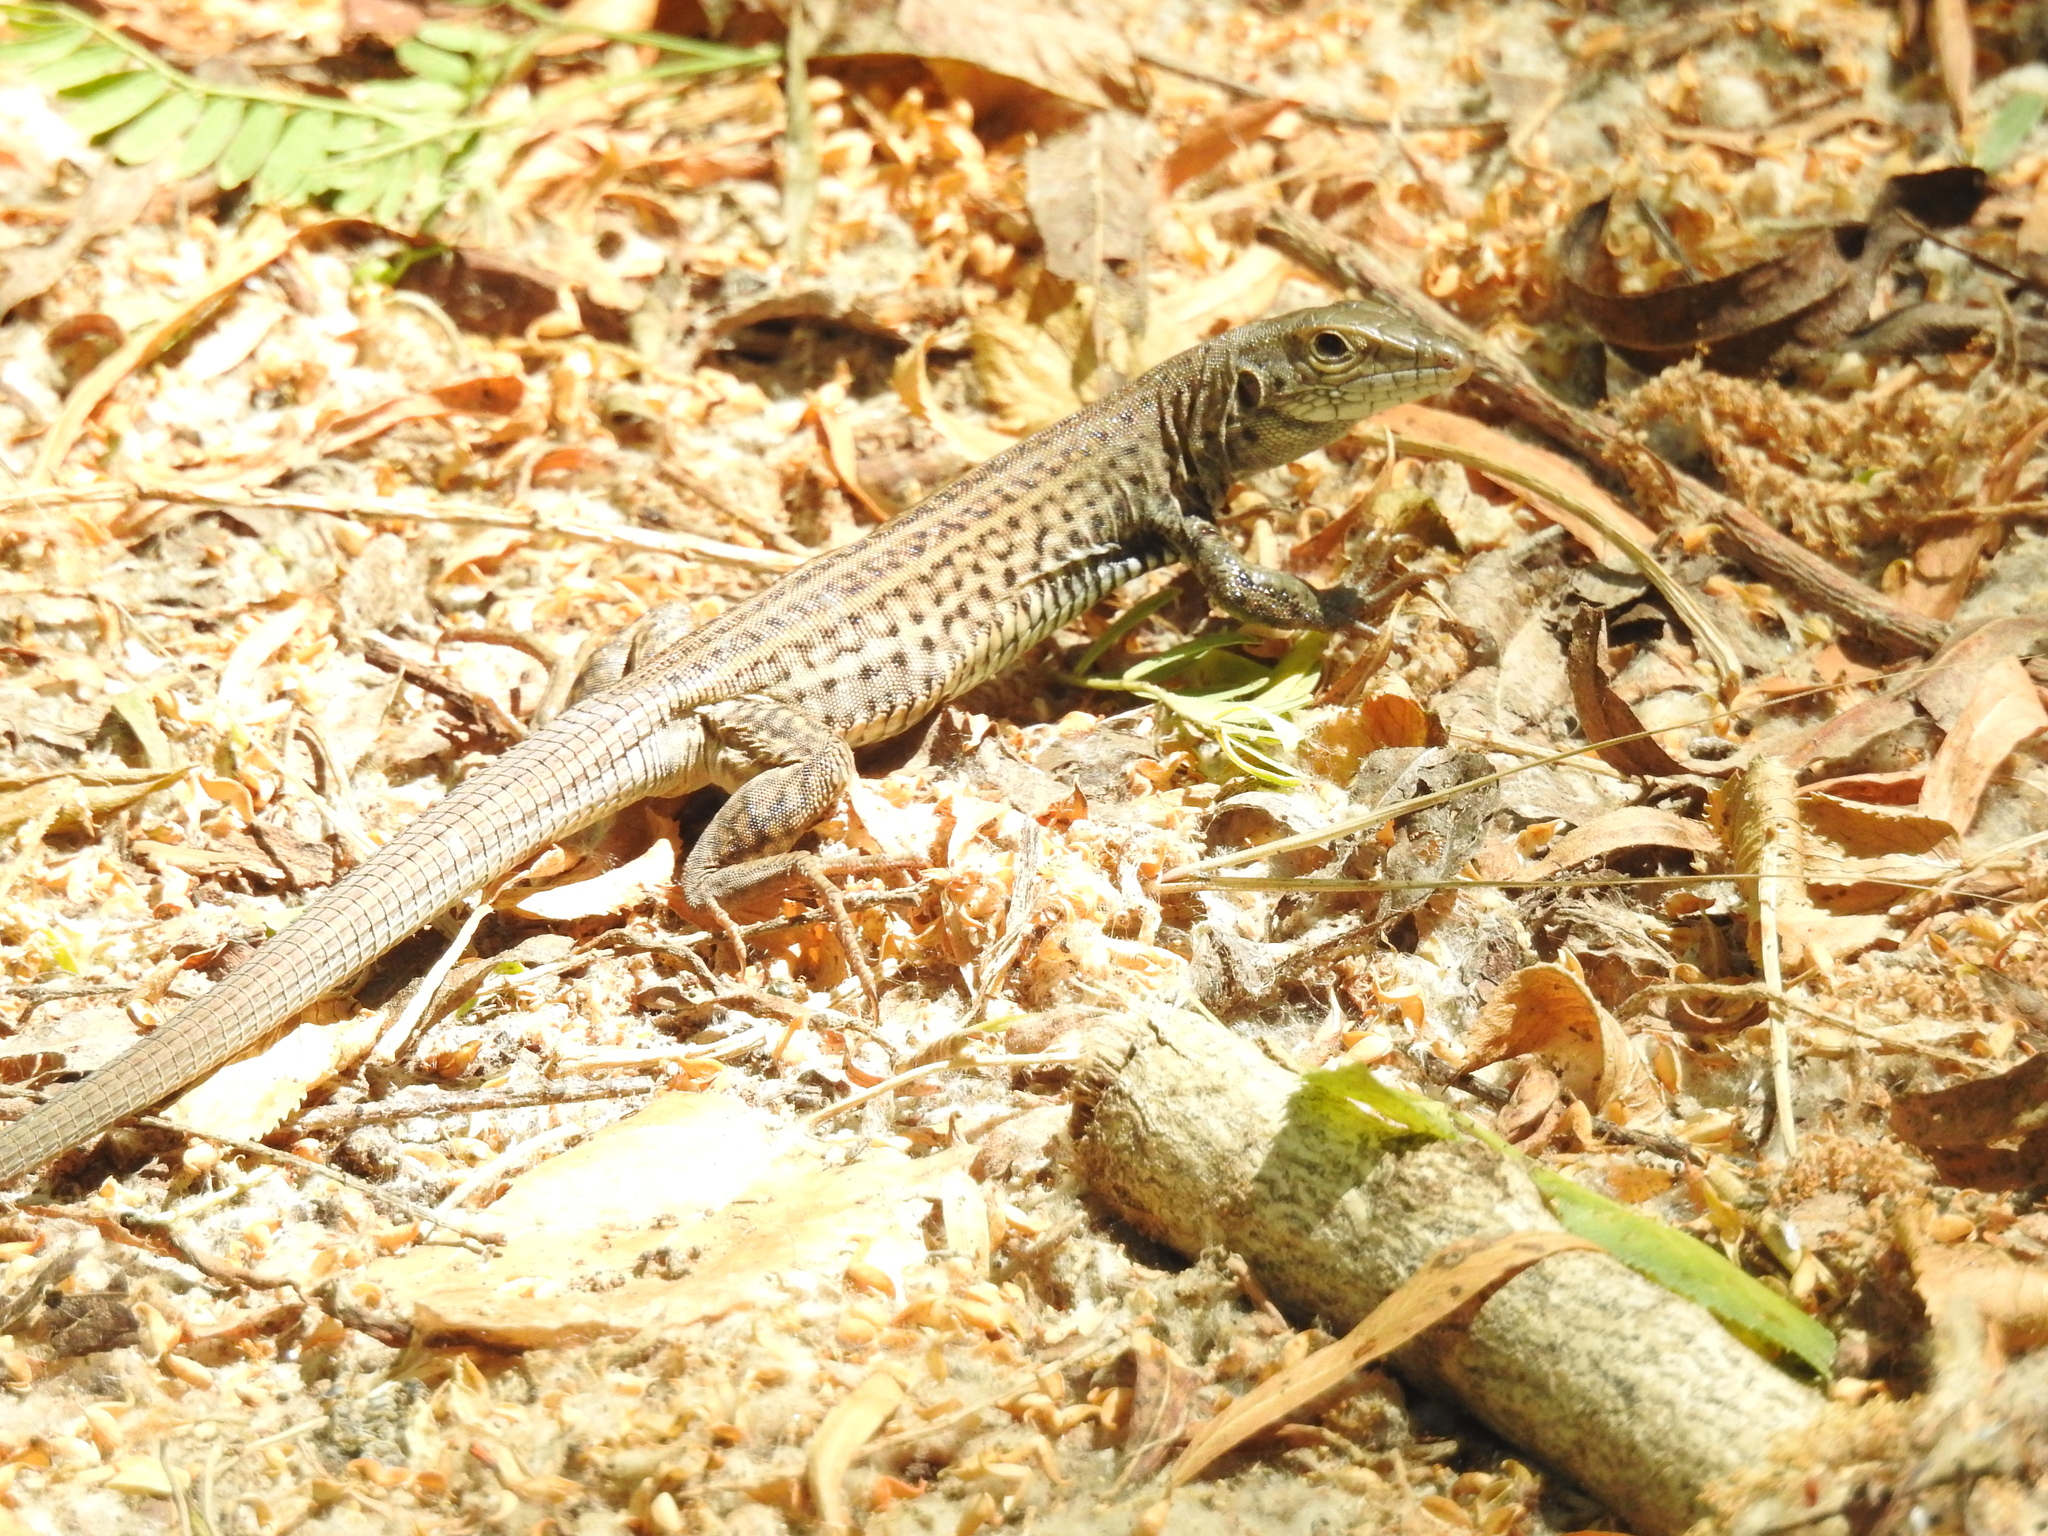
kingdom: Animalia
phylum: Chordata
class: Squamata
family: Teiidae
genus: Aspidoscelis
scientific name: Aspidoscelis tigris
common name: Tiger whiptail
